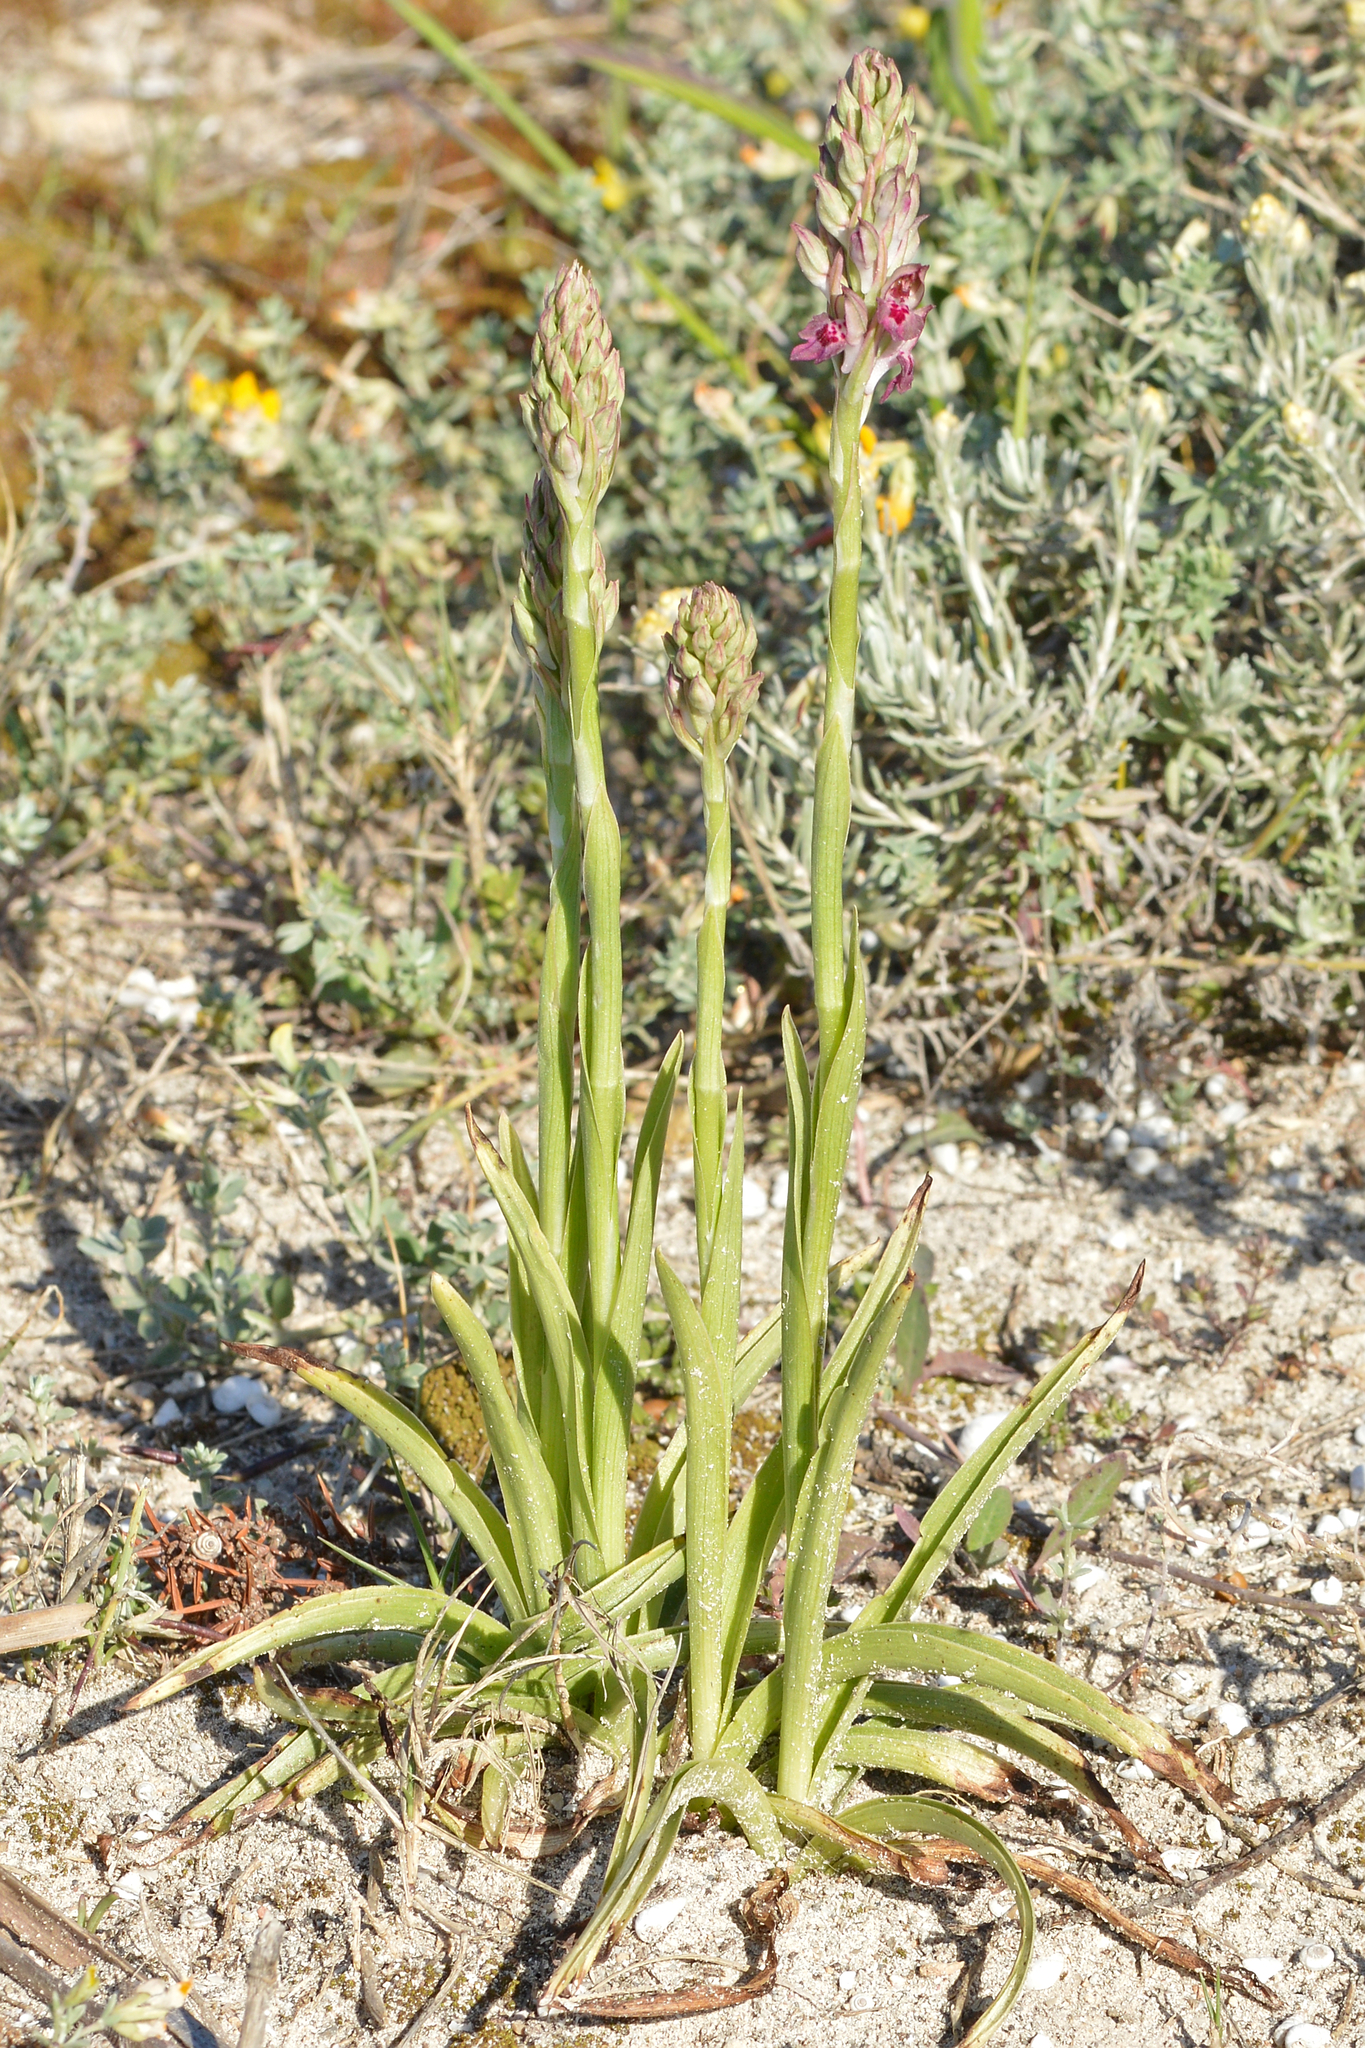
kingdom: Plantae
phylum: Tracheophyta
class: Liliopsida
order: Asparagales
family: Orchidaceae
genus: Anacamptis
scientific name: Anacamptis coriophora
